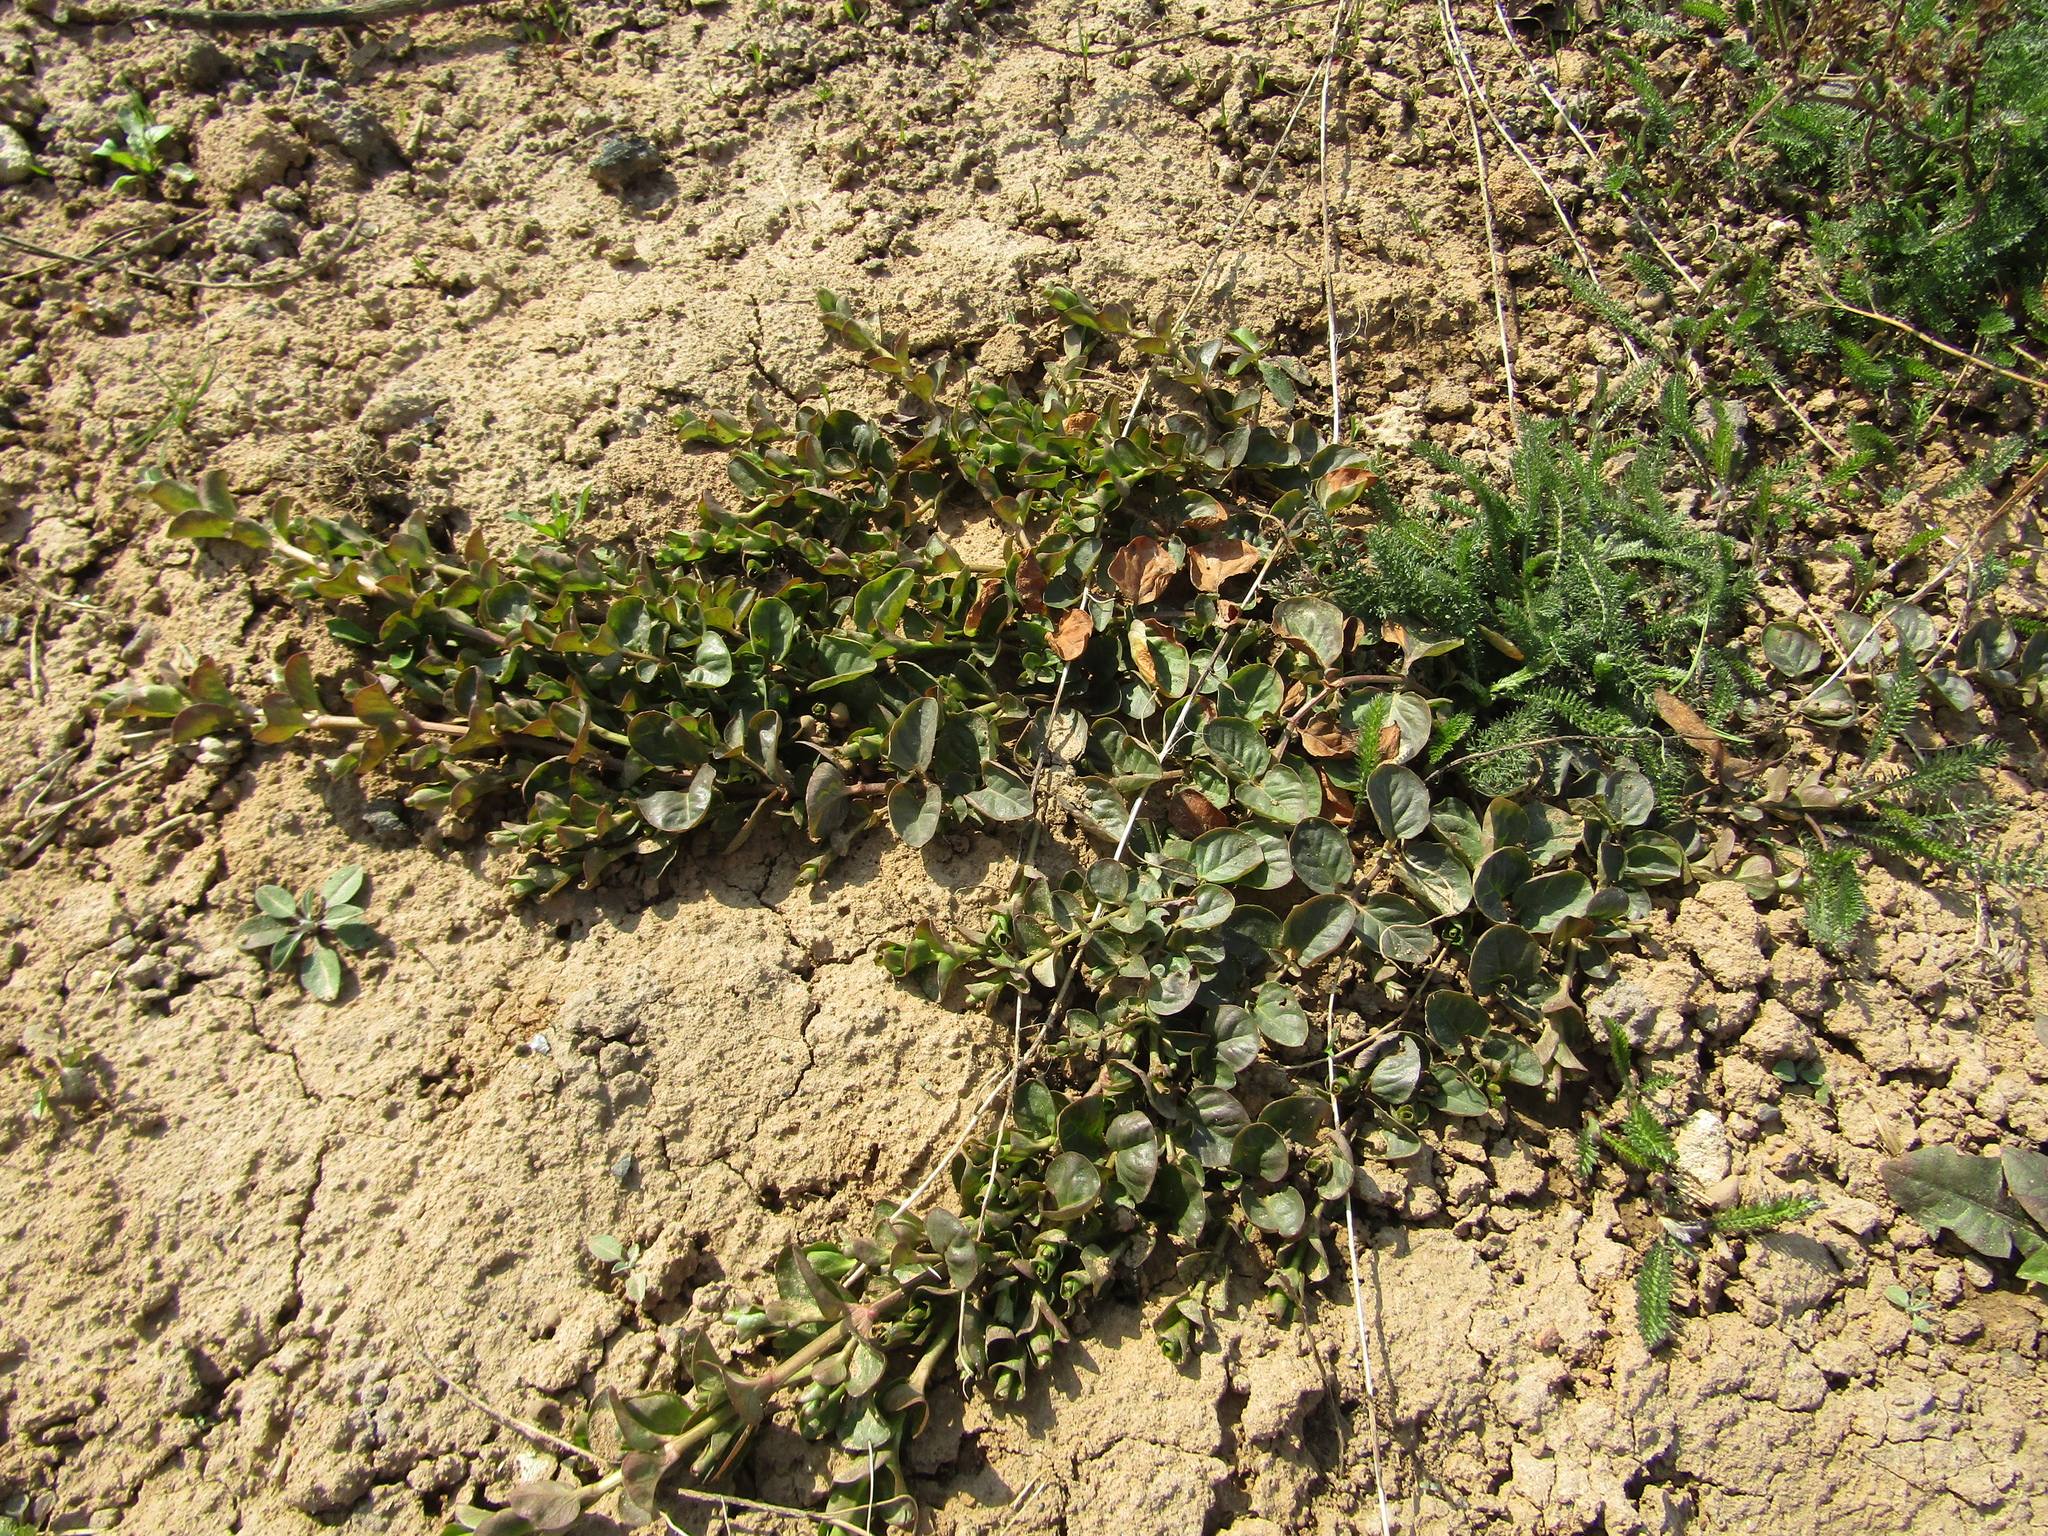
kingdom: Plantae
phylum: Tracheophyta
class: Magnoliopsida
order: Ericales
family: Primulaceae
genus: Lysimachia
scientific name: Lysimachia nummularia
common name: Moneywort
